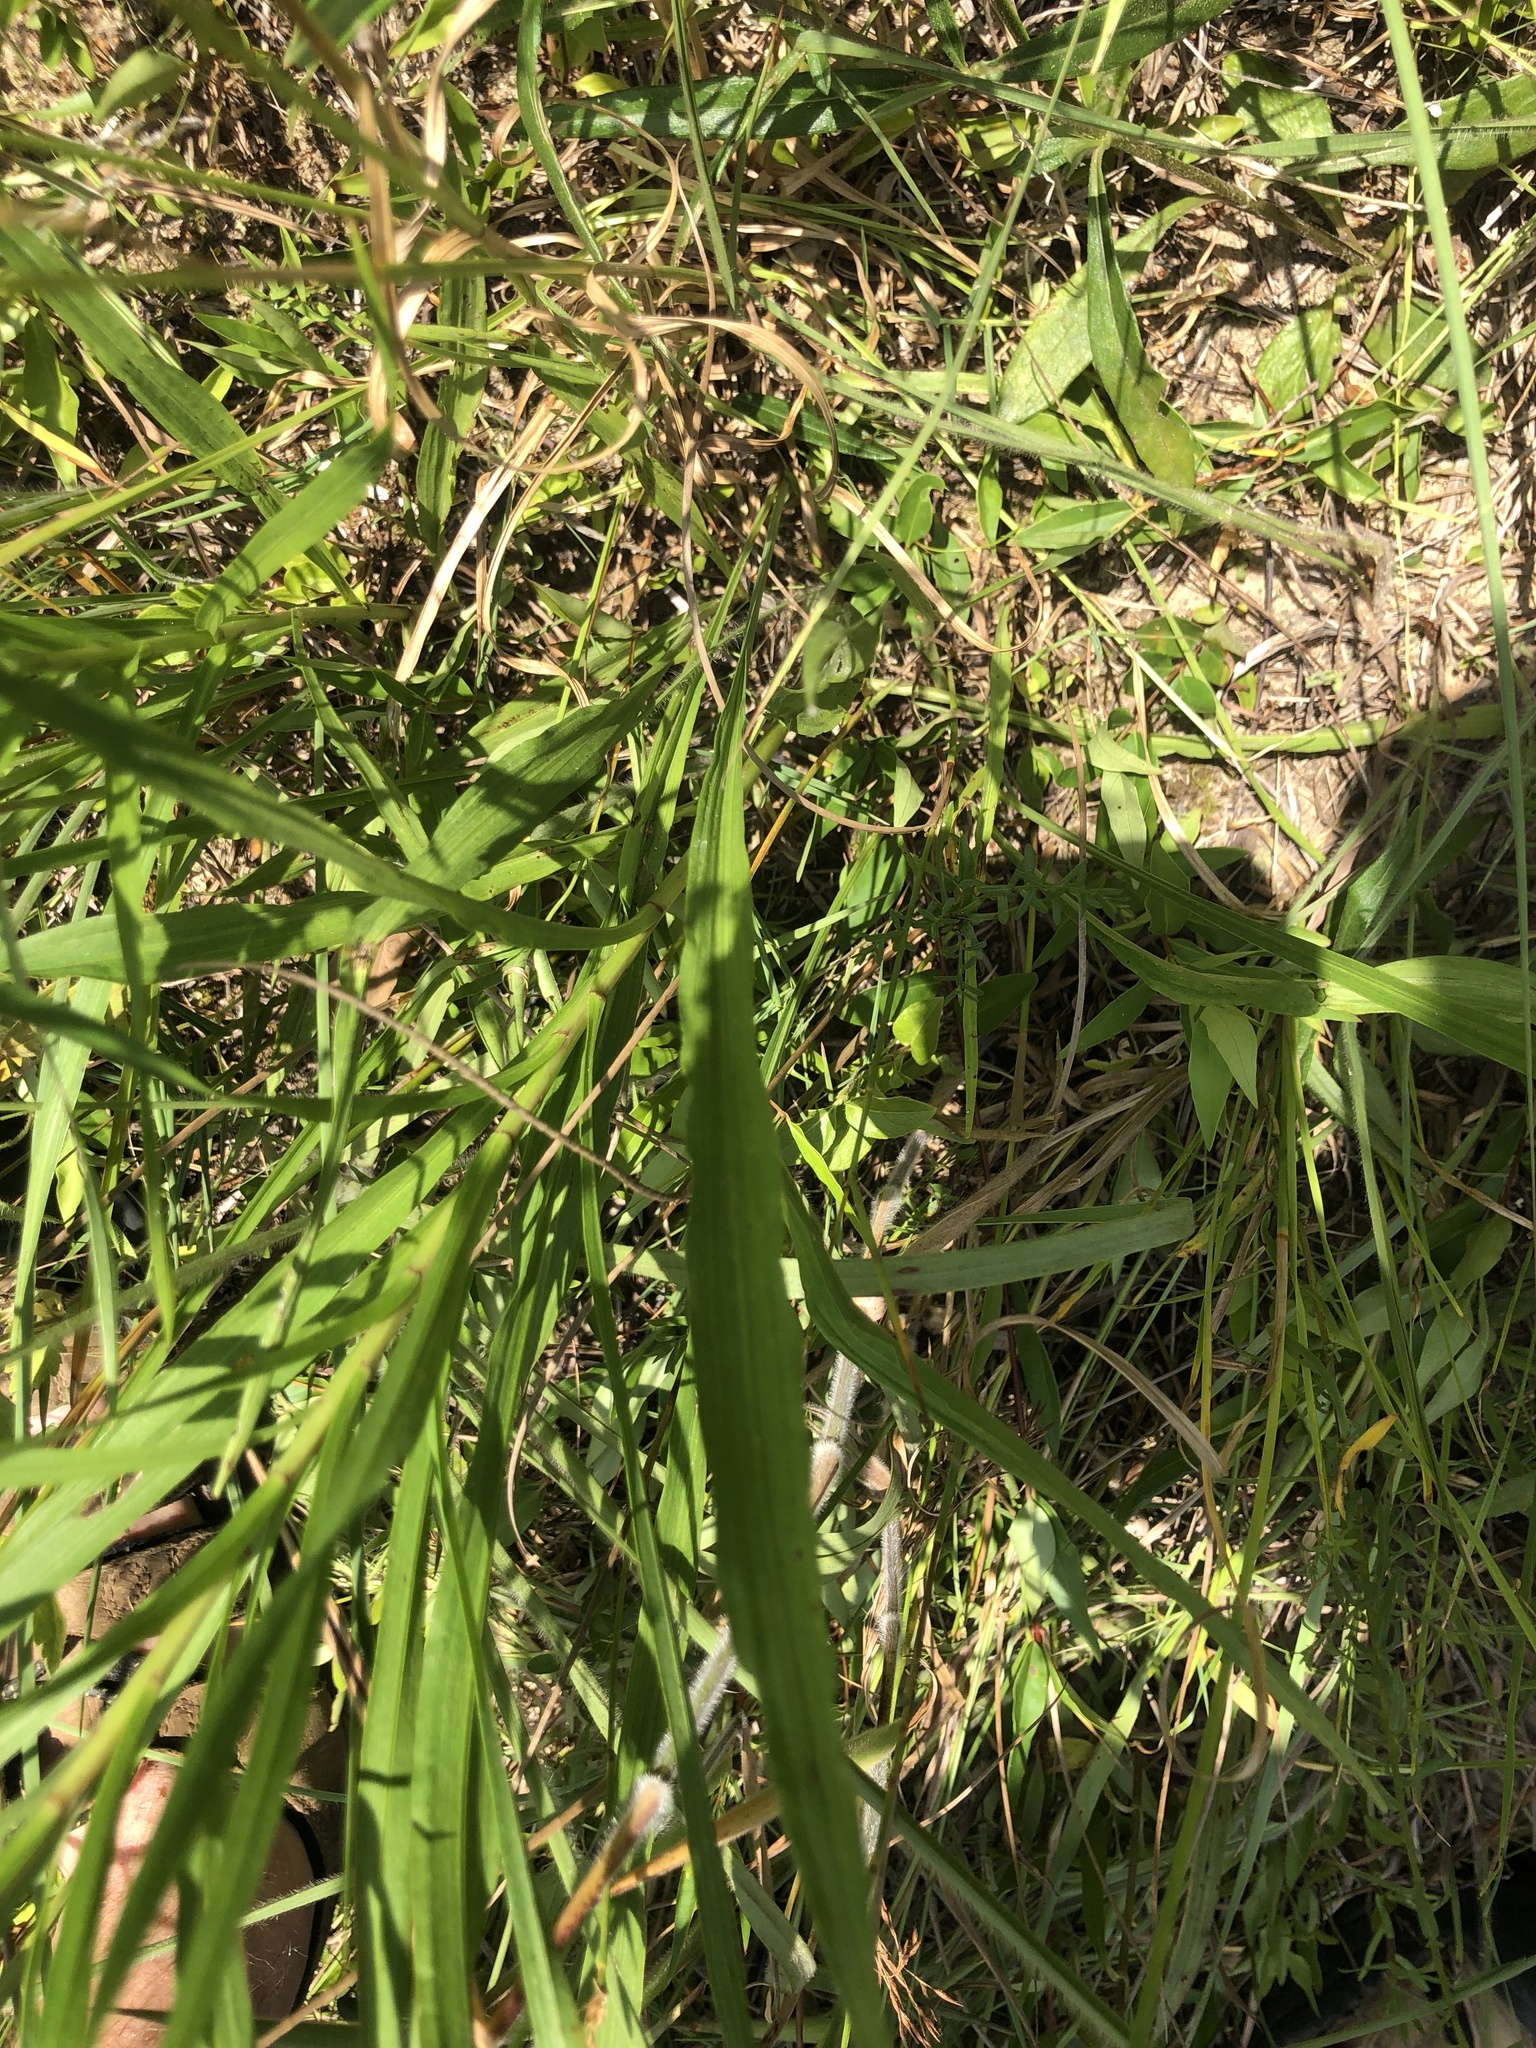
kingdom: Plantae
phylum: Tracheophyta
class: Magnoliopsida
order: Asterales
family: Asteraceae
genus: Liatris
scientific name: Liatris spicata
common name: Florist gayfeather
